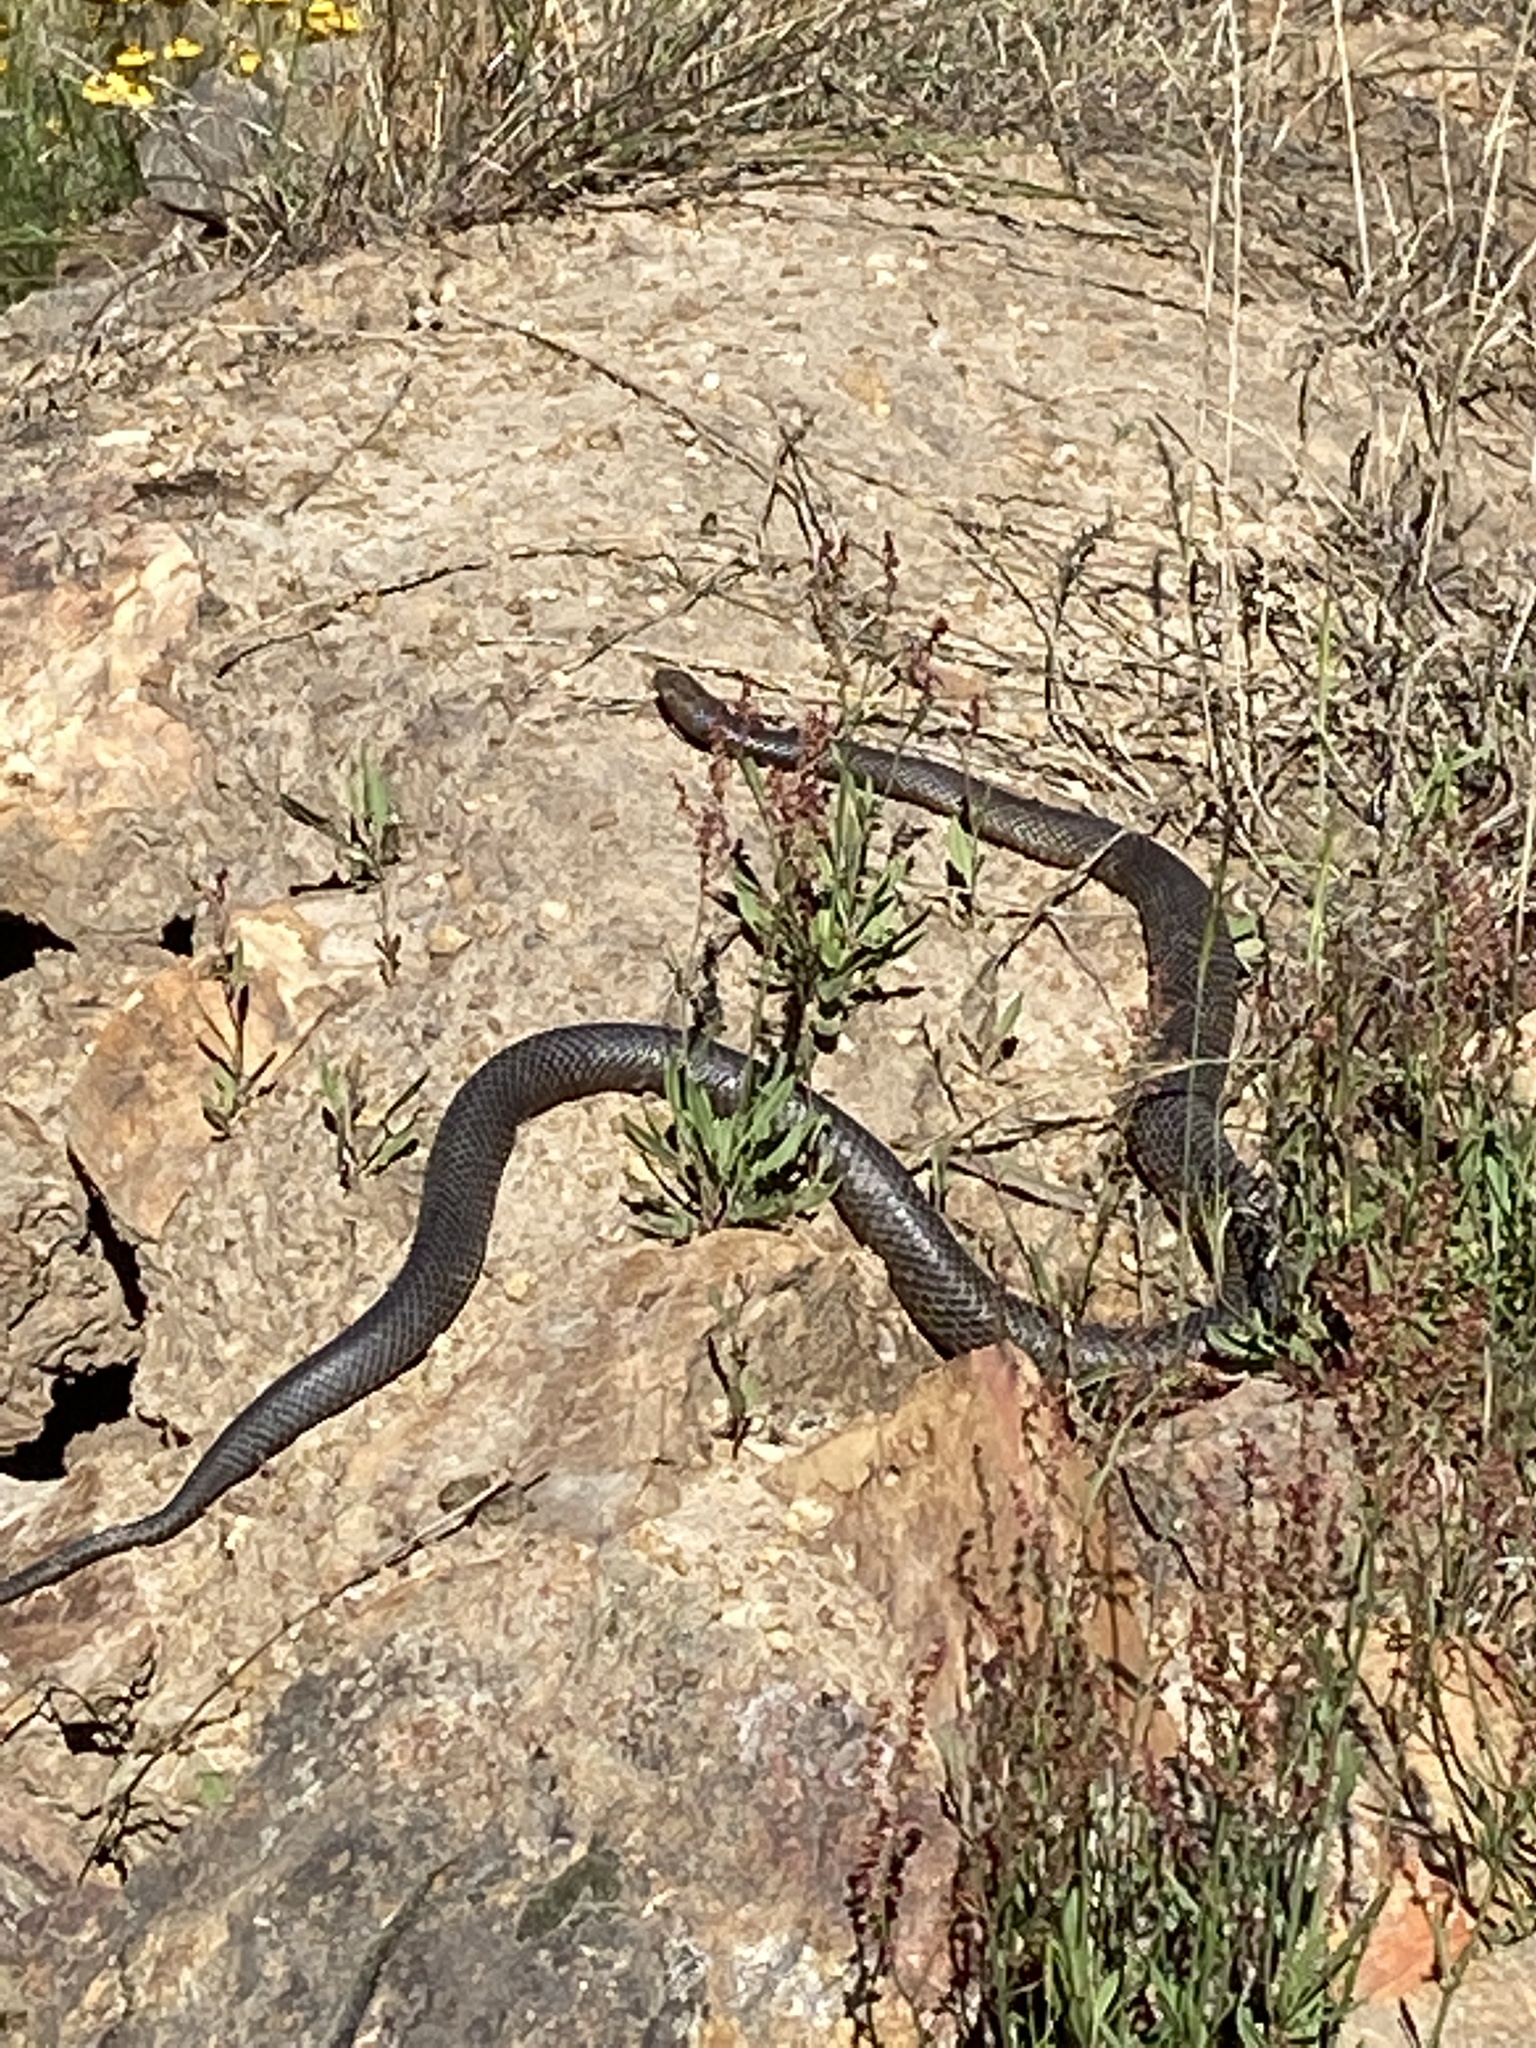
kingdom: Animalia
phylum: Chordata
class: Squamata
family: Elapidae
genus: Pseudonaja
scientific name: Pseudonaja textilis
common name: Eastern brown snake
